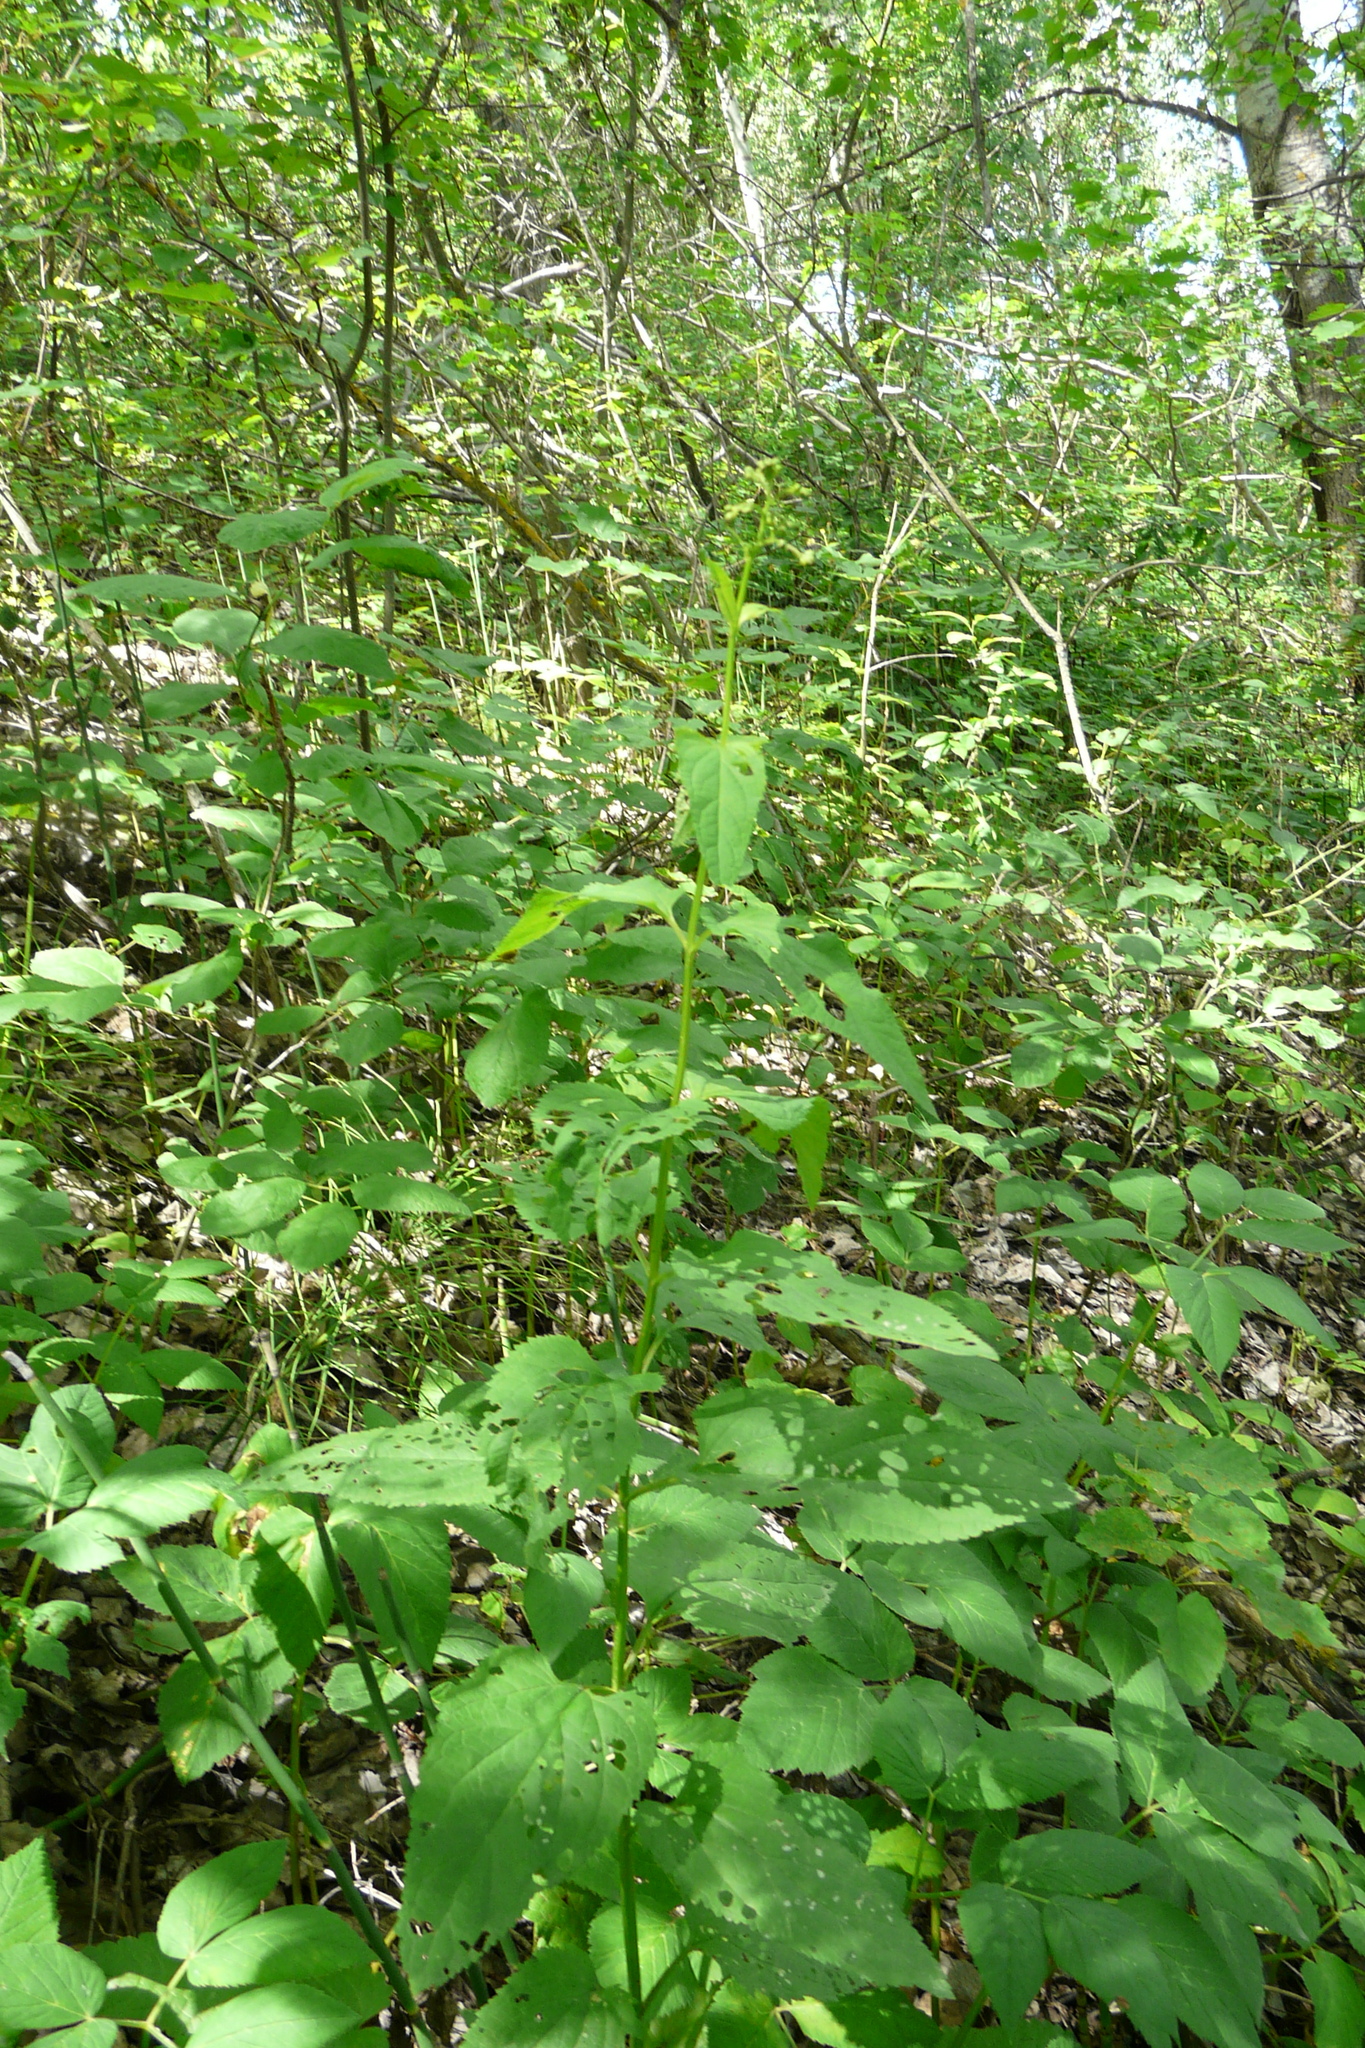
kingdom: Plantae
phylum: Tracheophyta
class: Magnoliopsida
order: Lamiales
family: Scrophulariaceae
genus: Scrophularia
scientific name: Scrophularia nodosa
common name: Common figwort
